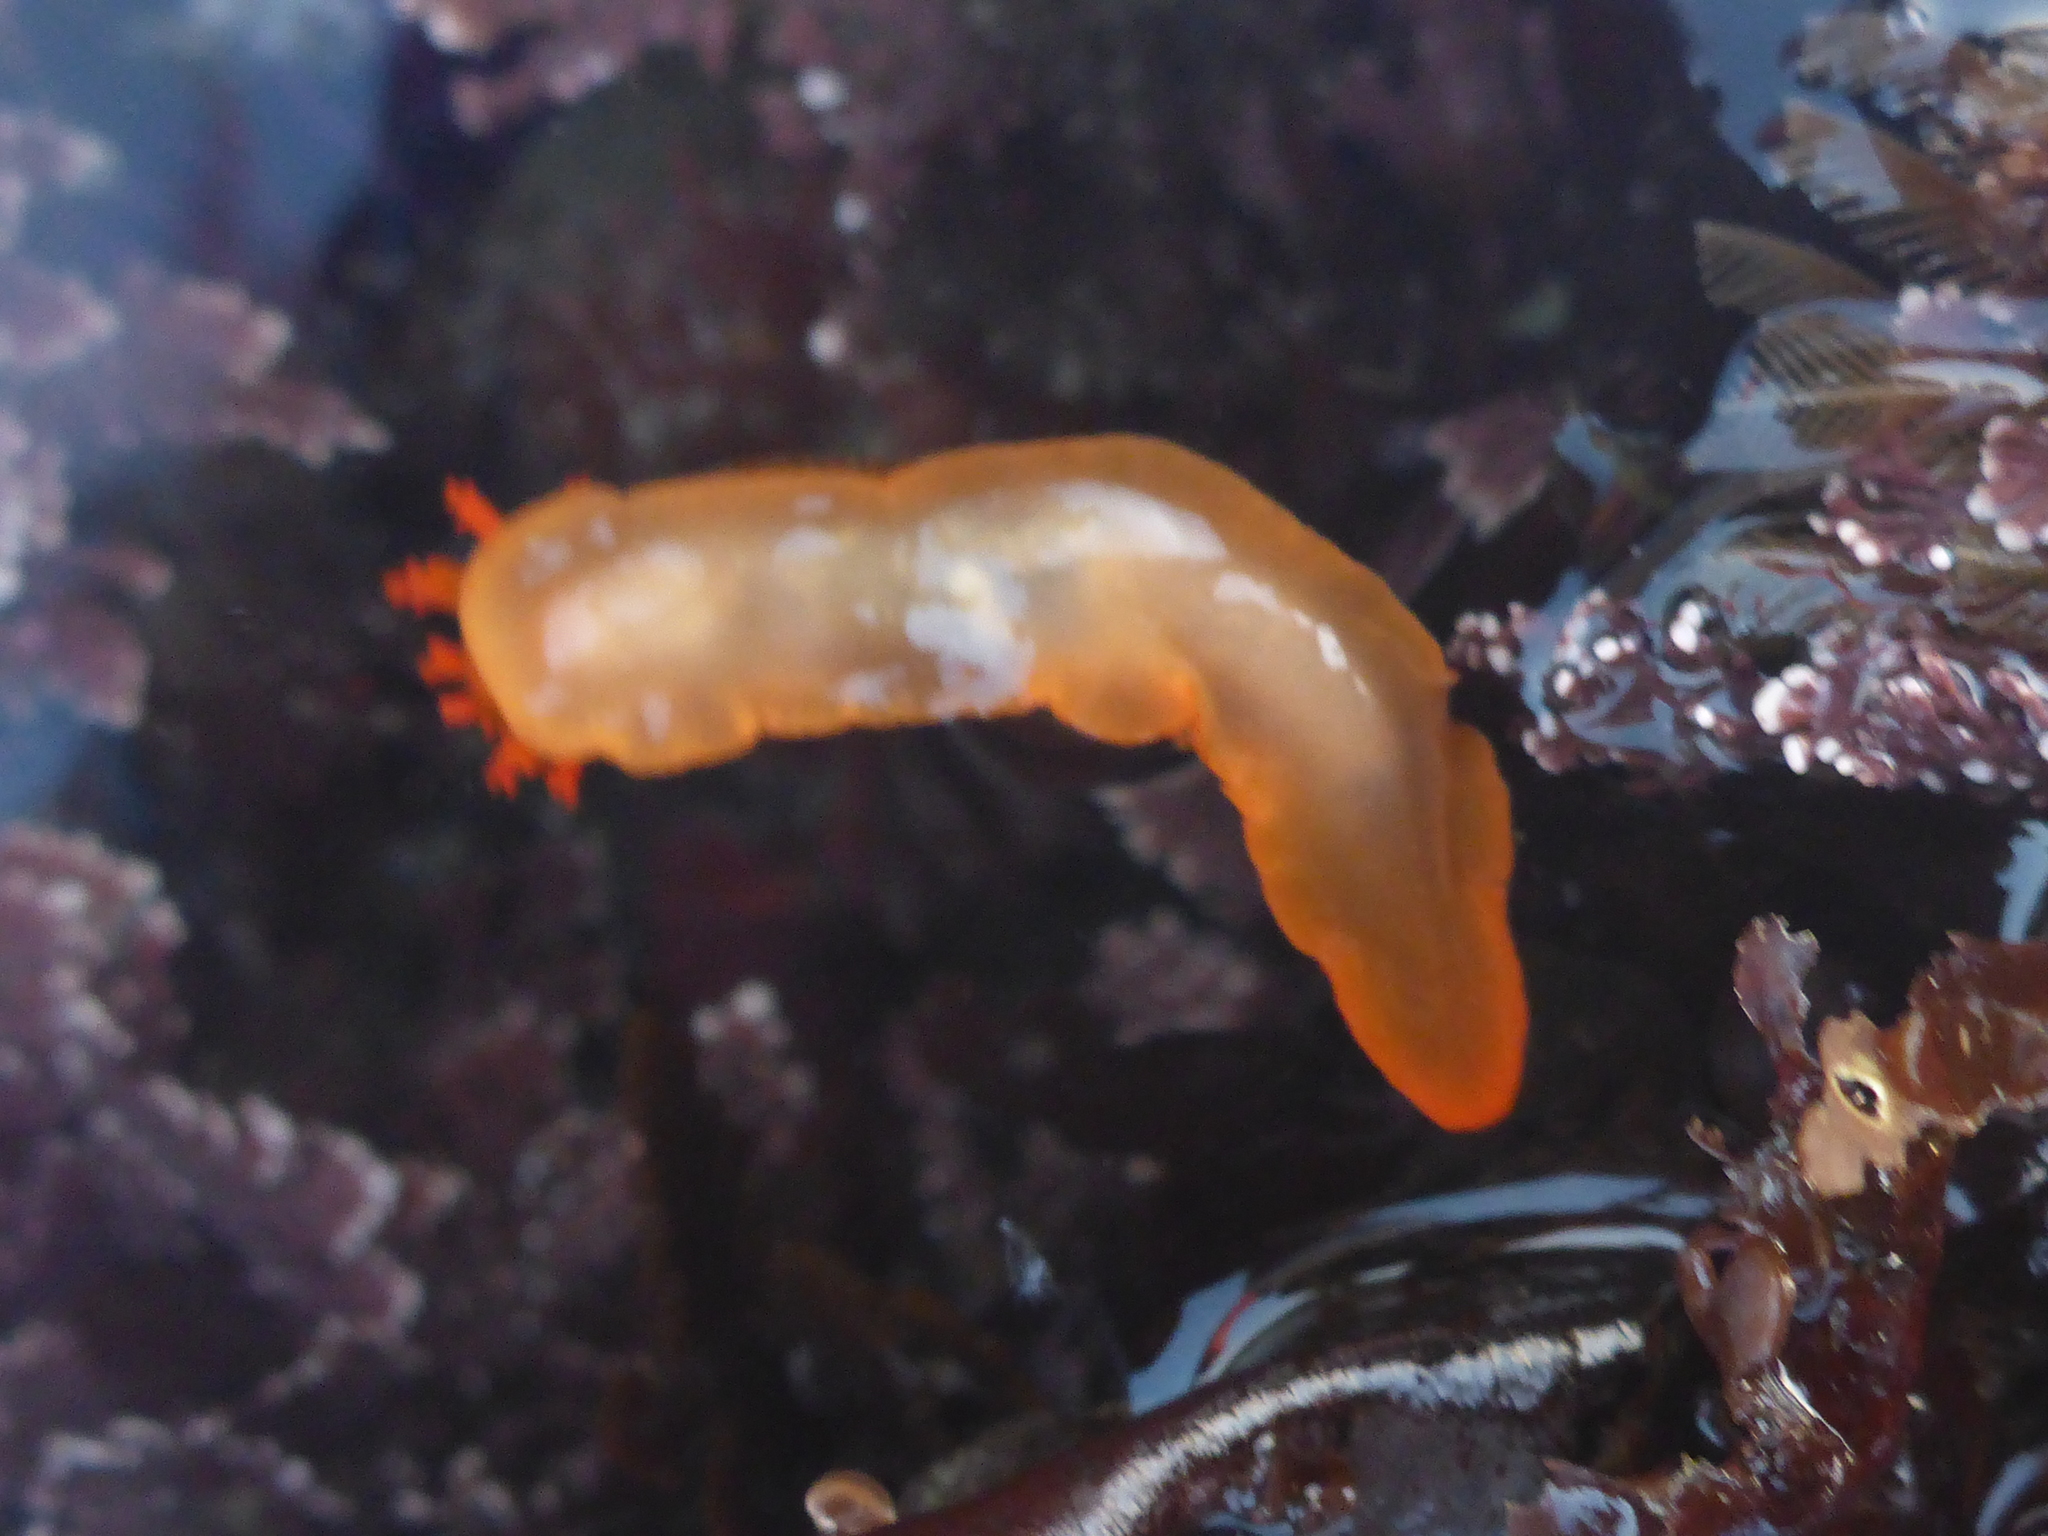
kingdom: Animalia
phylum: Mollusca
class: Gastropoda
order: Nudibranchia
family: Polyceridae
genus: Triopha
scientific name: Triopha maculata
